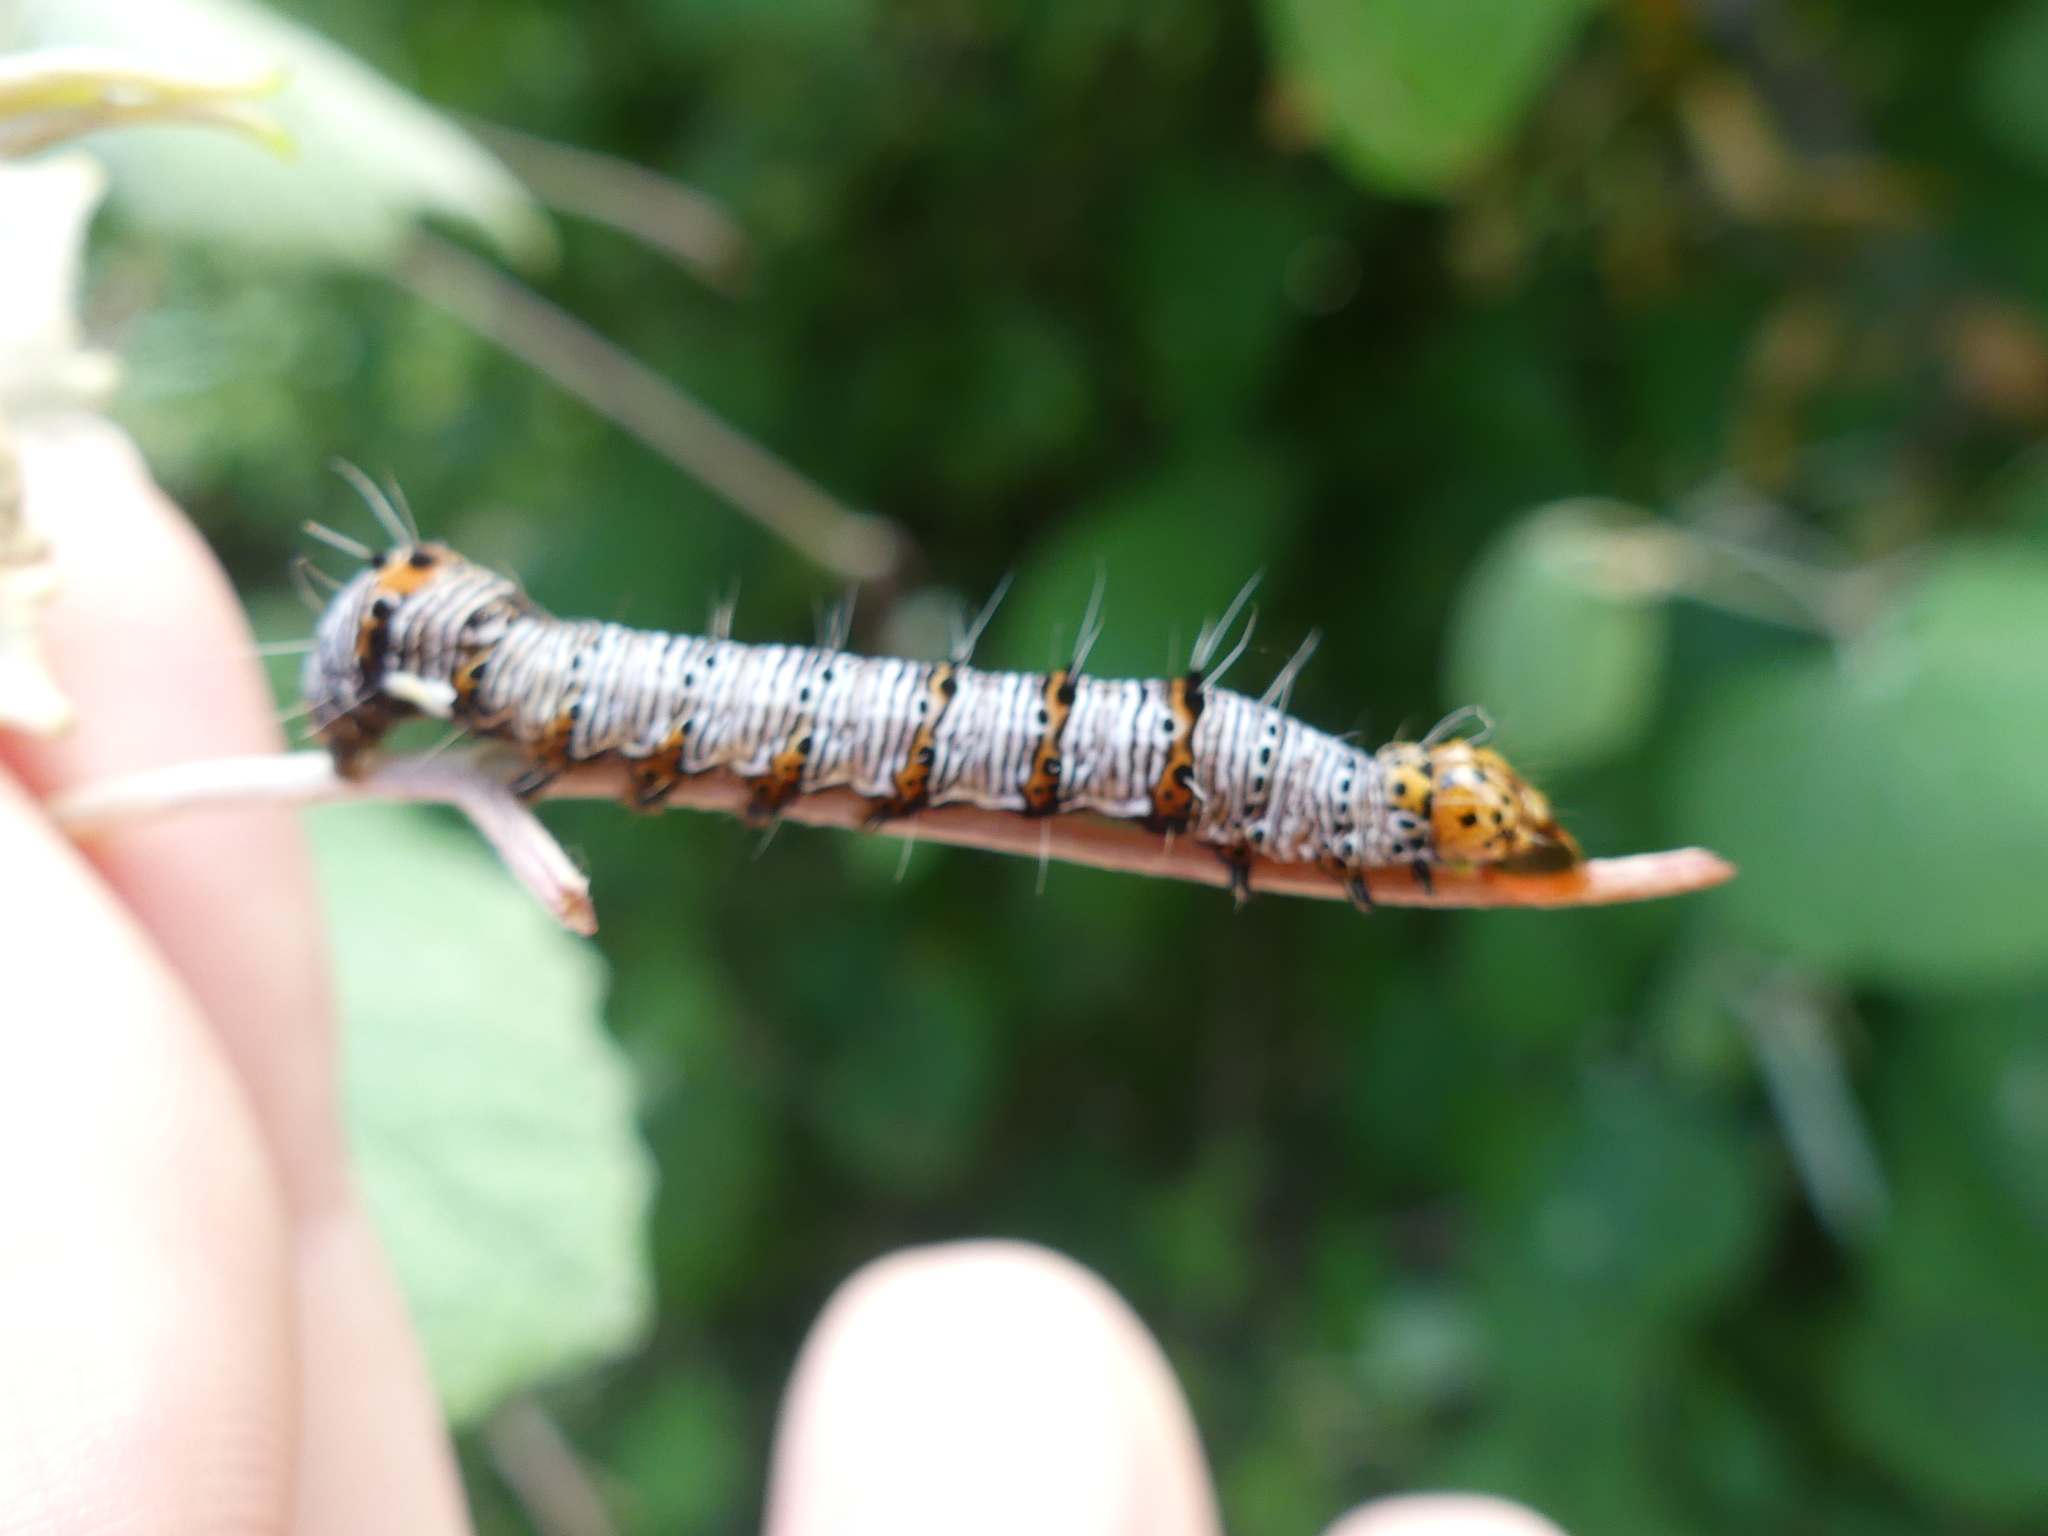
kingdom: Animalia
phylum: Arthropoda
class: Insecta
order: Lepidoptera
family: Noctuidae
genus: Alypia
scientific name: Alypia octomaculata
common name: Eight-spotted forester
